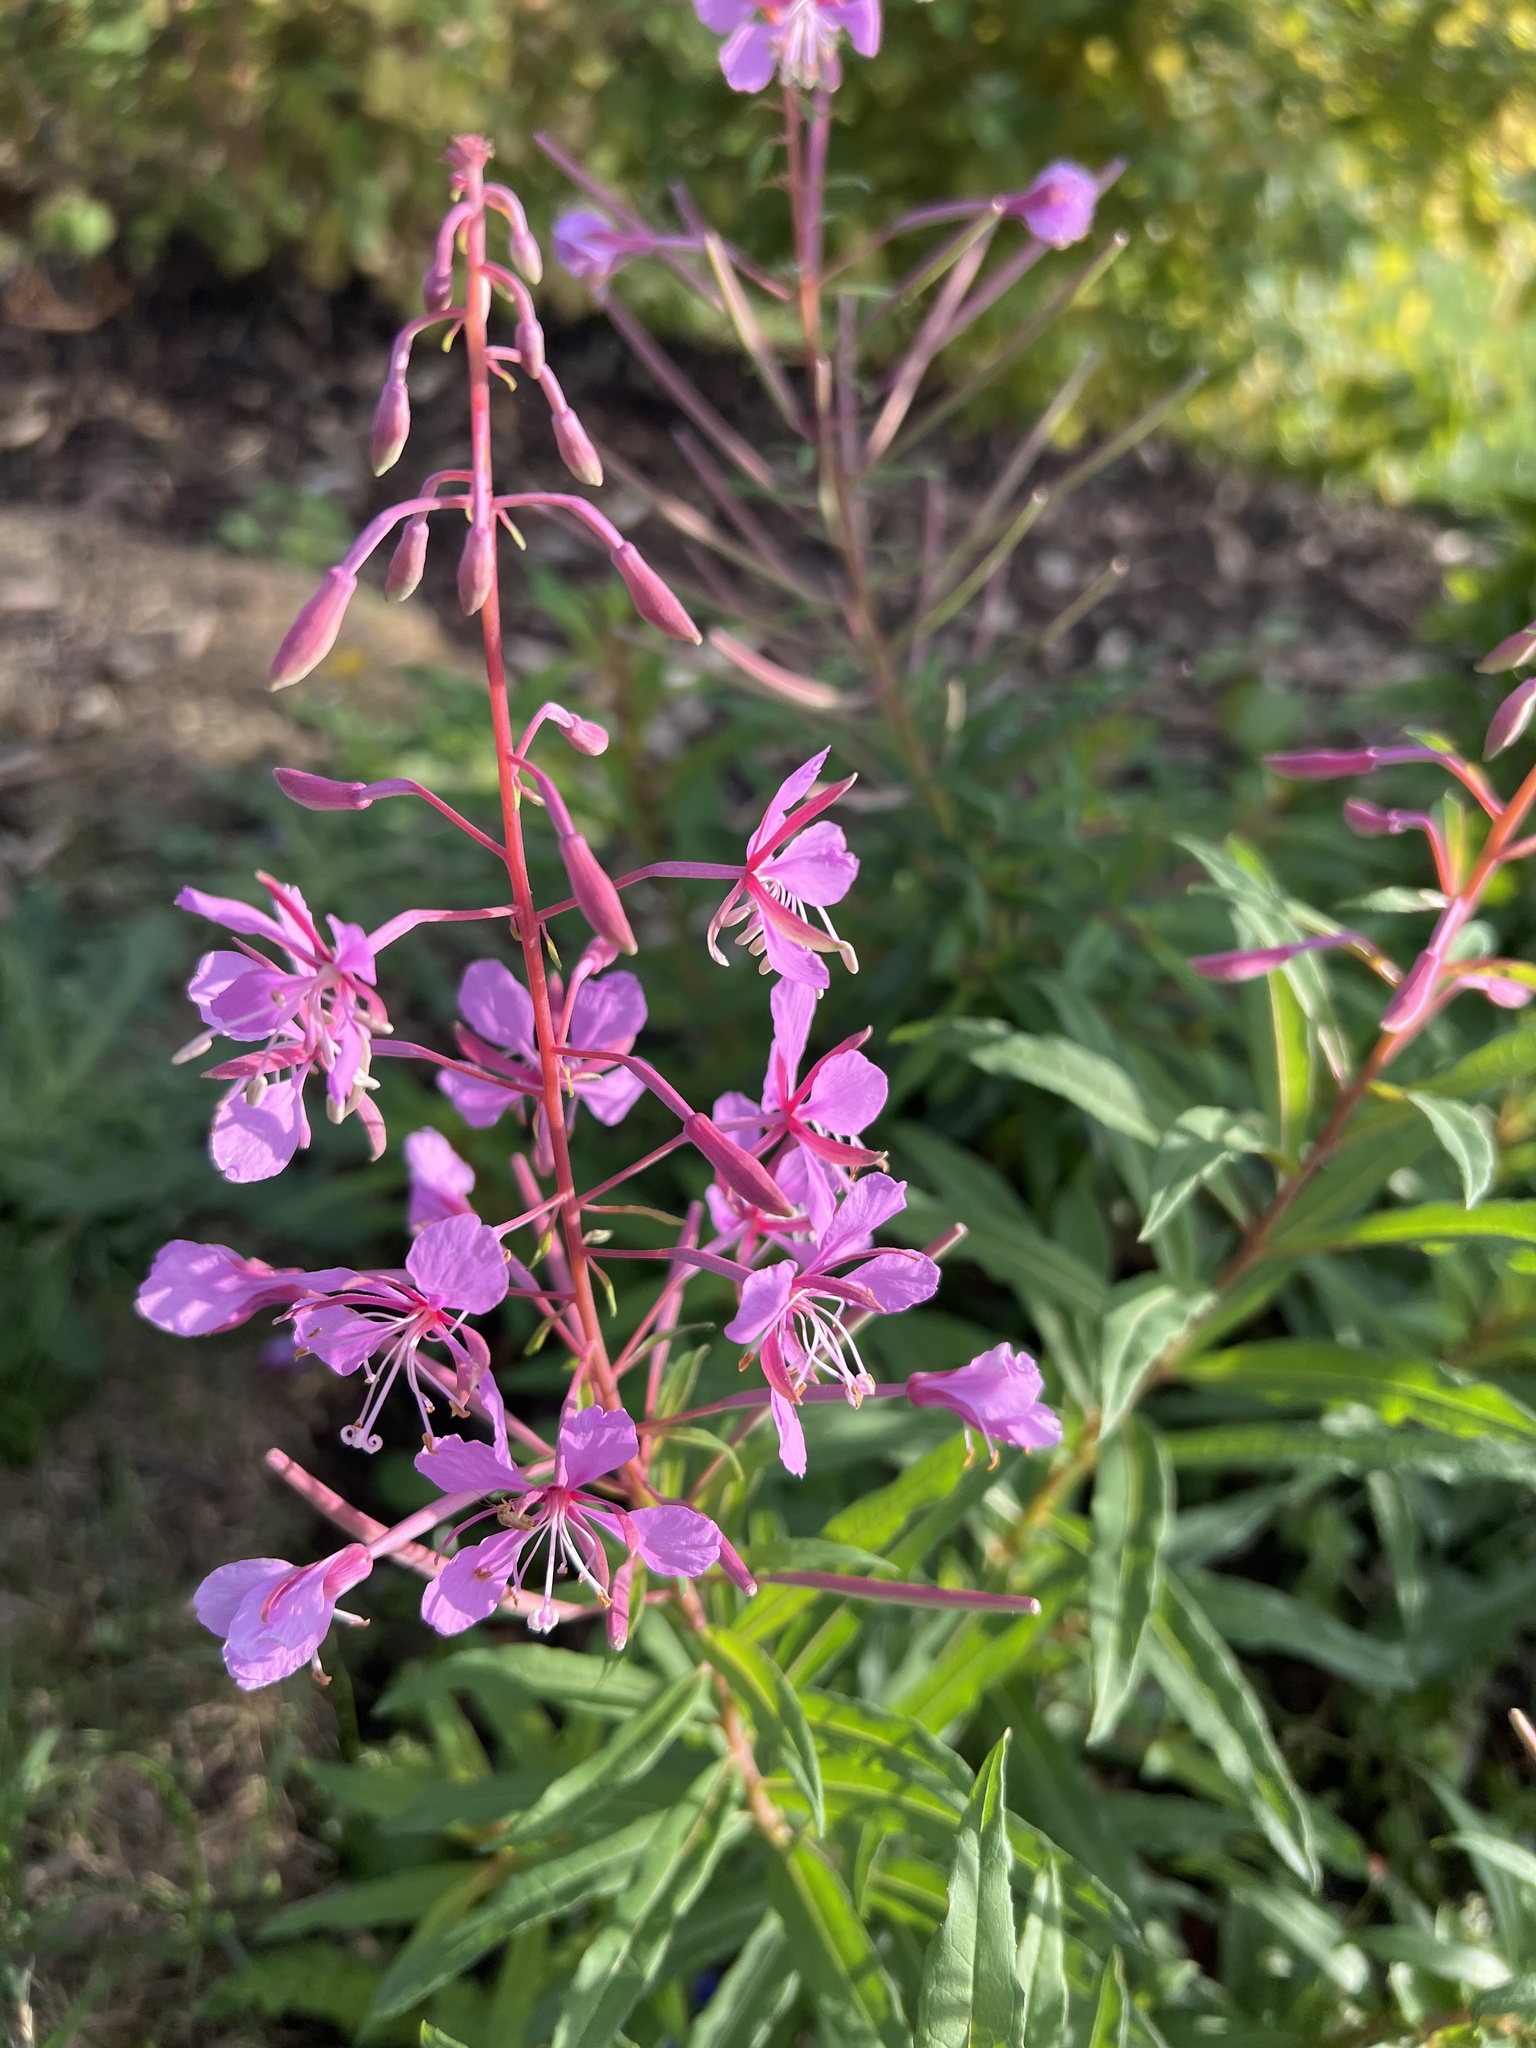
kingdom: Plantae
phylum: Tracheophyta
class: Magnoliopsida
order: Myrtales
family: Onagraceae
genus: Chamaenerion
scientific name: Chamaenerion angustifolium
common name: Fireweed
